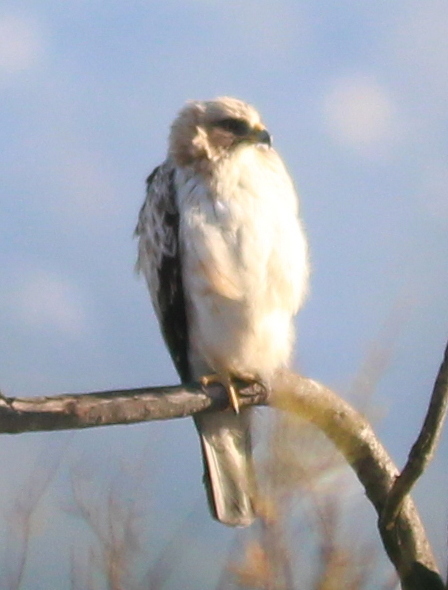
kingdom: Animalia
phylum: Chordata
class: Aves
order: Accipitriformes
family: Accipitridae
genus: Hieraaetus
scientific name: Hieraaetus pennatus
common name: Booted eagle
